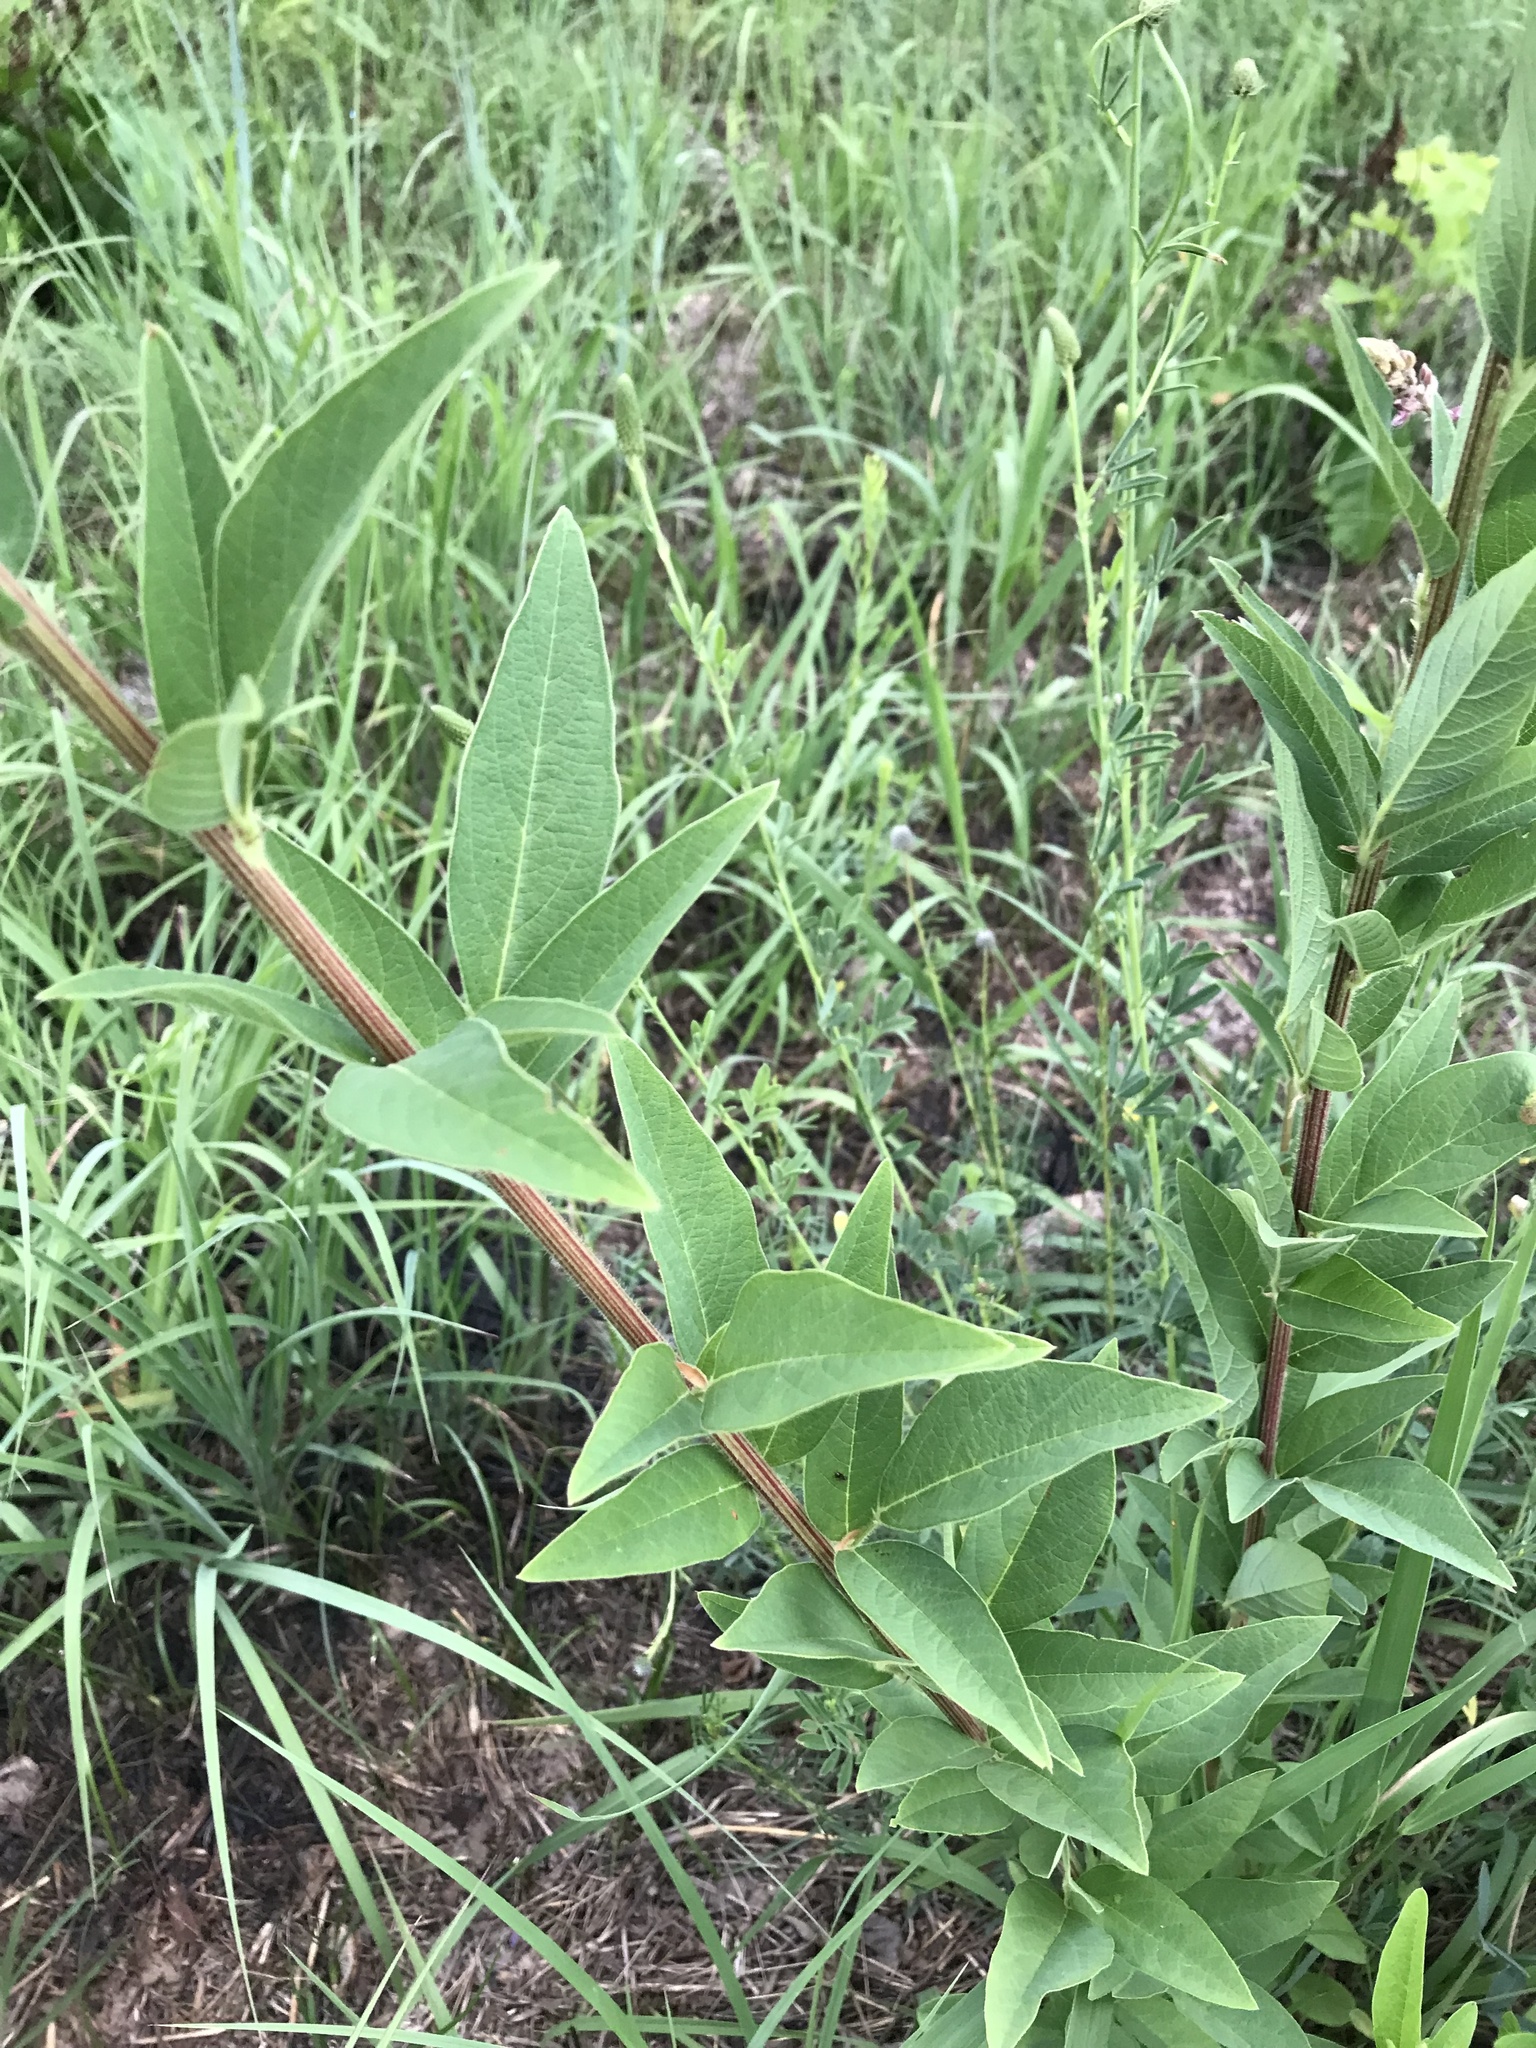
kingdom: Plantae
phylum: Tracheophyta
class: Magnoliopsida
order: Fabales
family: Fabaceae
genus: Desmodium
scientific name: Desmodium canadense
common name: Canada tick-trefoil
